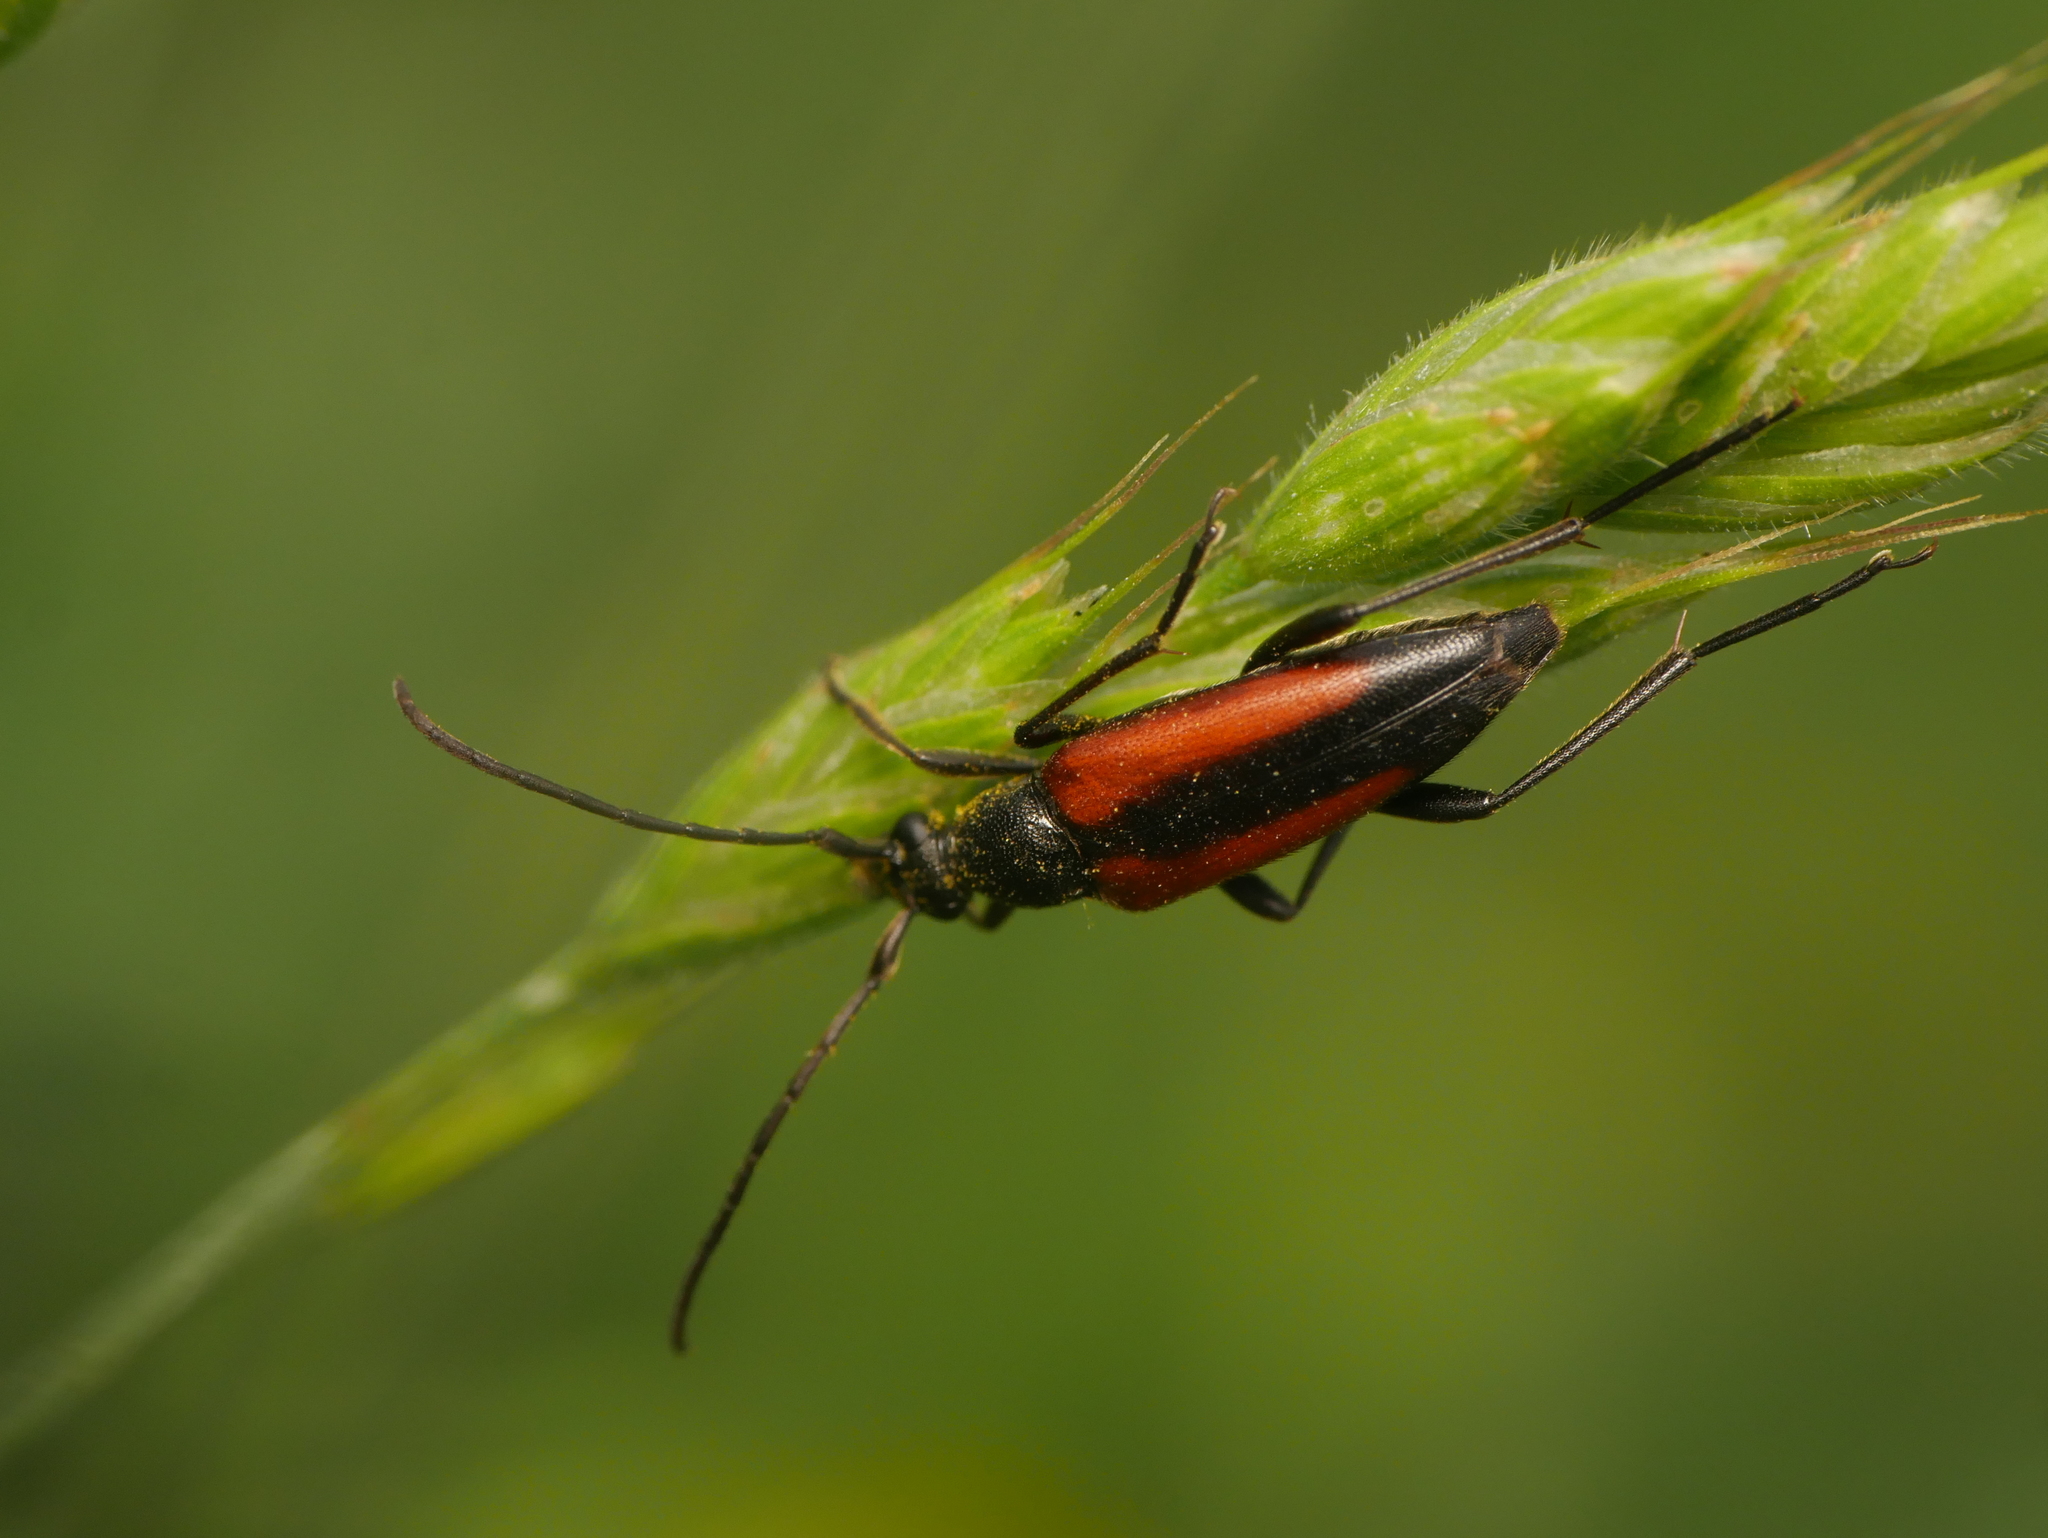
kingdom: Animalia
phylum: Arthropoda
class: Insecta
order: Coleoptera
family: Cerambycidae
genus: Stenurella
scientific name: Stenurella melanura
